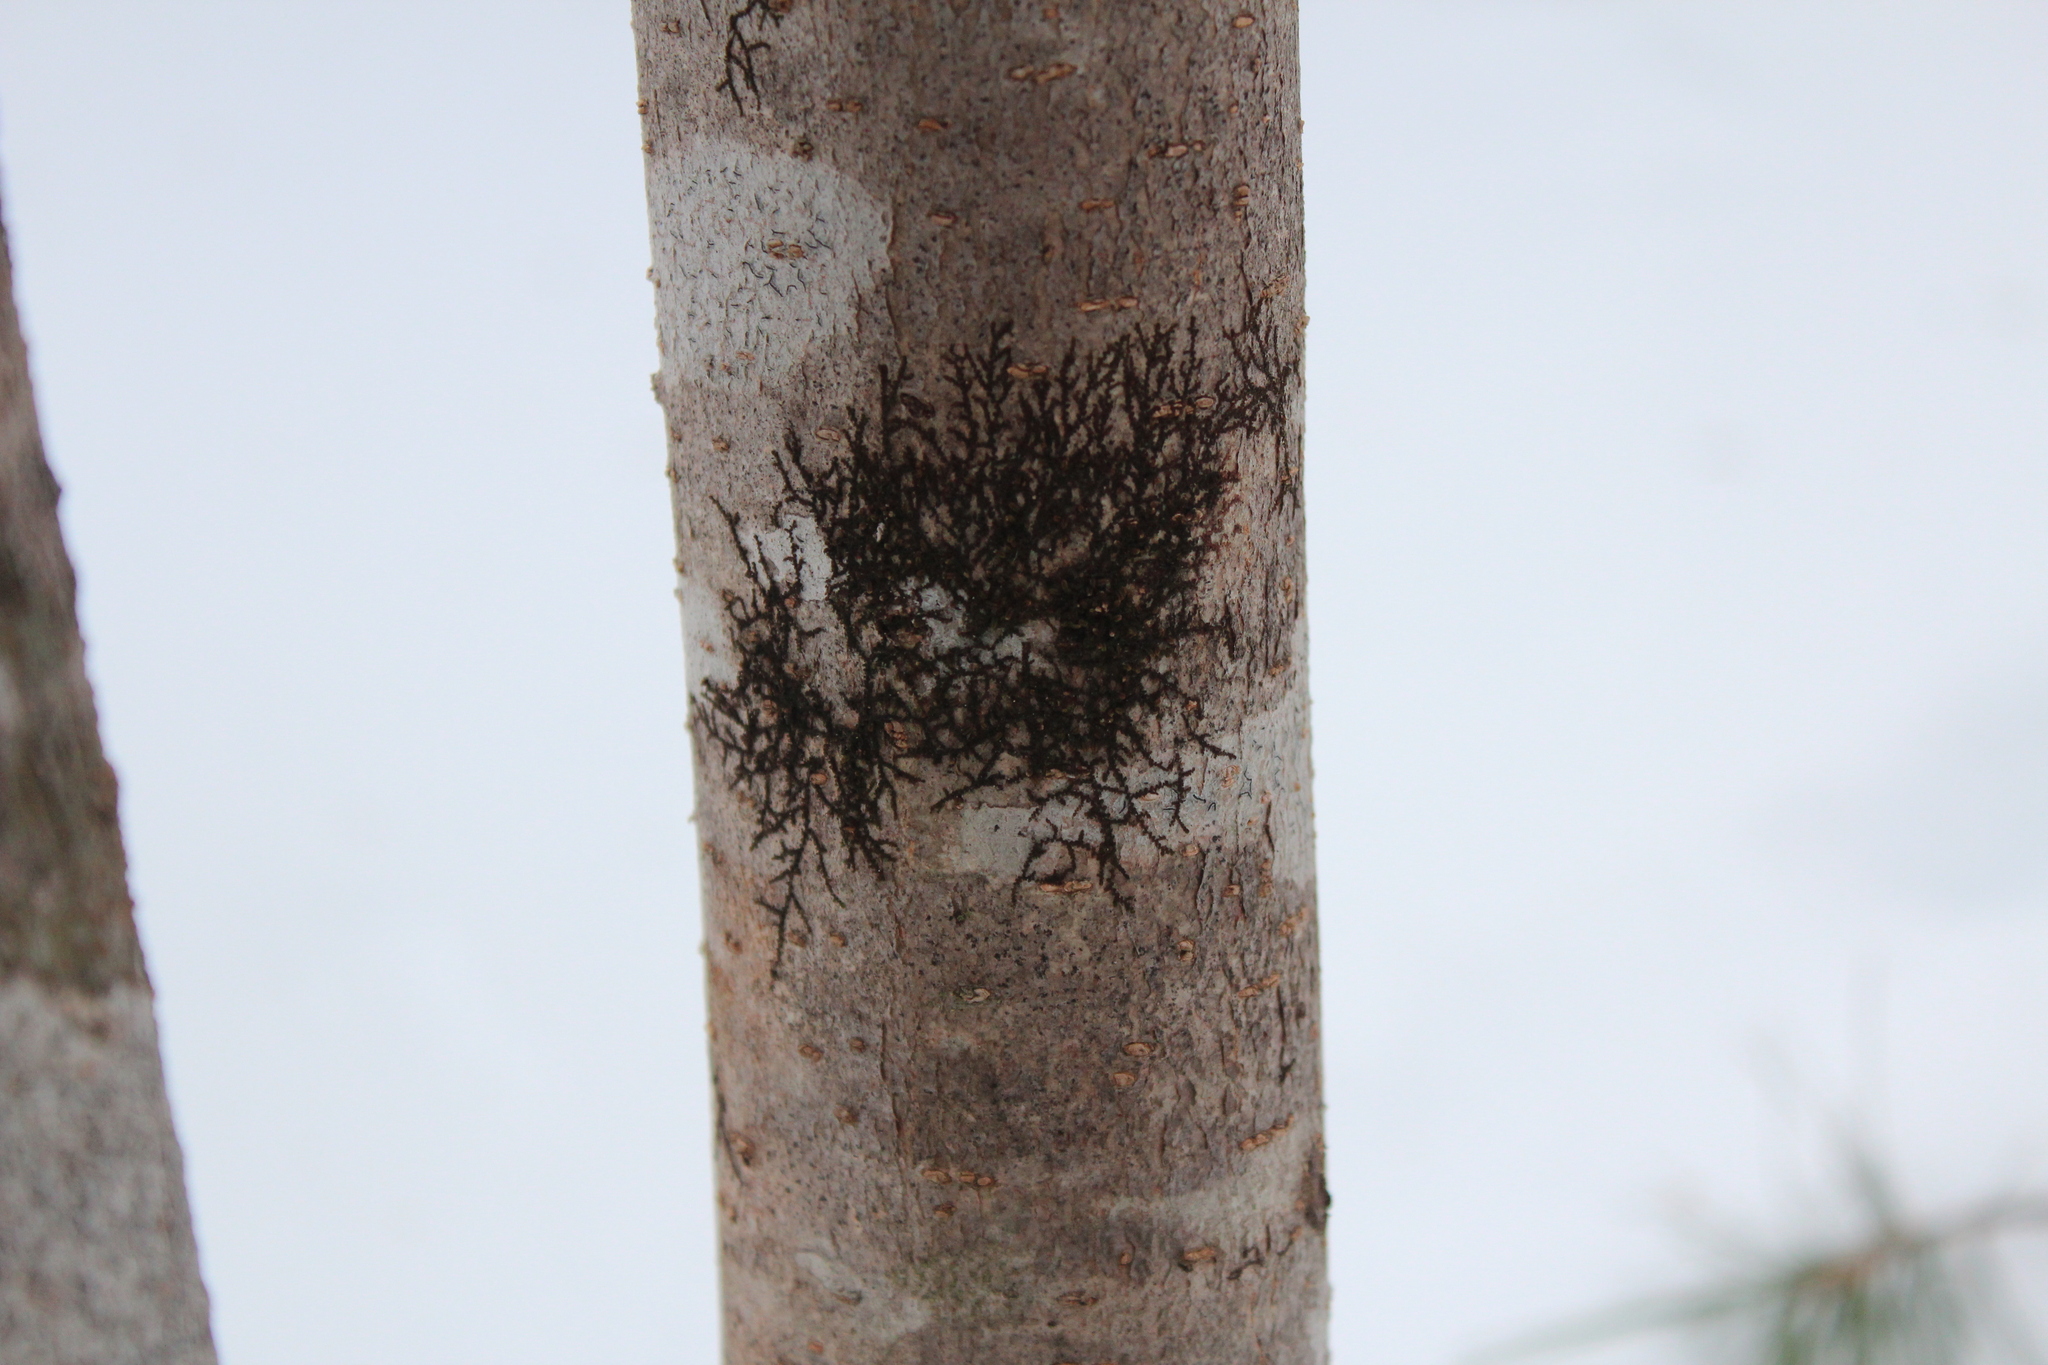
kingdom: Plantae
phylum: Marchantiophyta
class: Jungermanniopsida
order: Porellales
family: Frullaniaceae
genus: Frullania
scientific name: Frullania eboracensis
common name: New york scalewort
